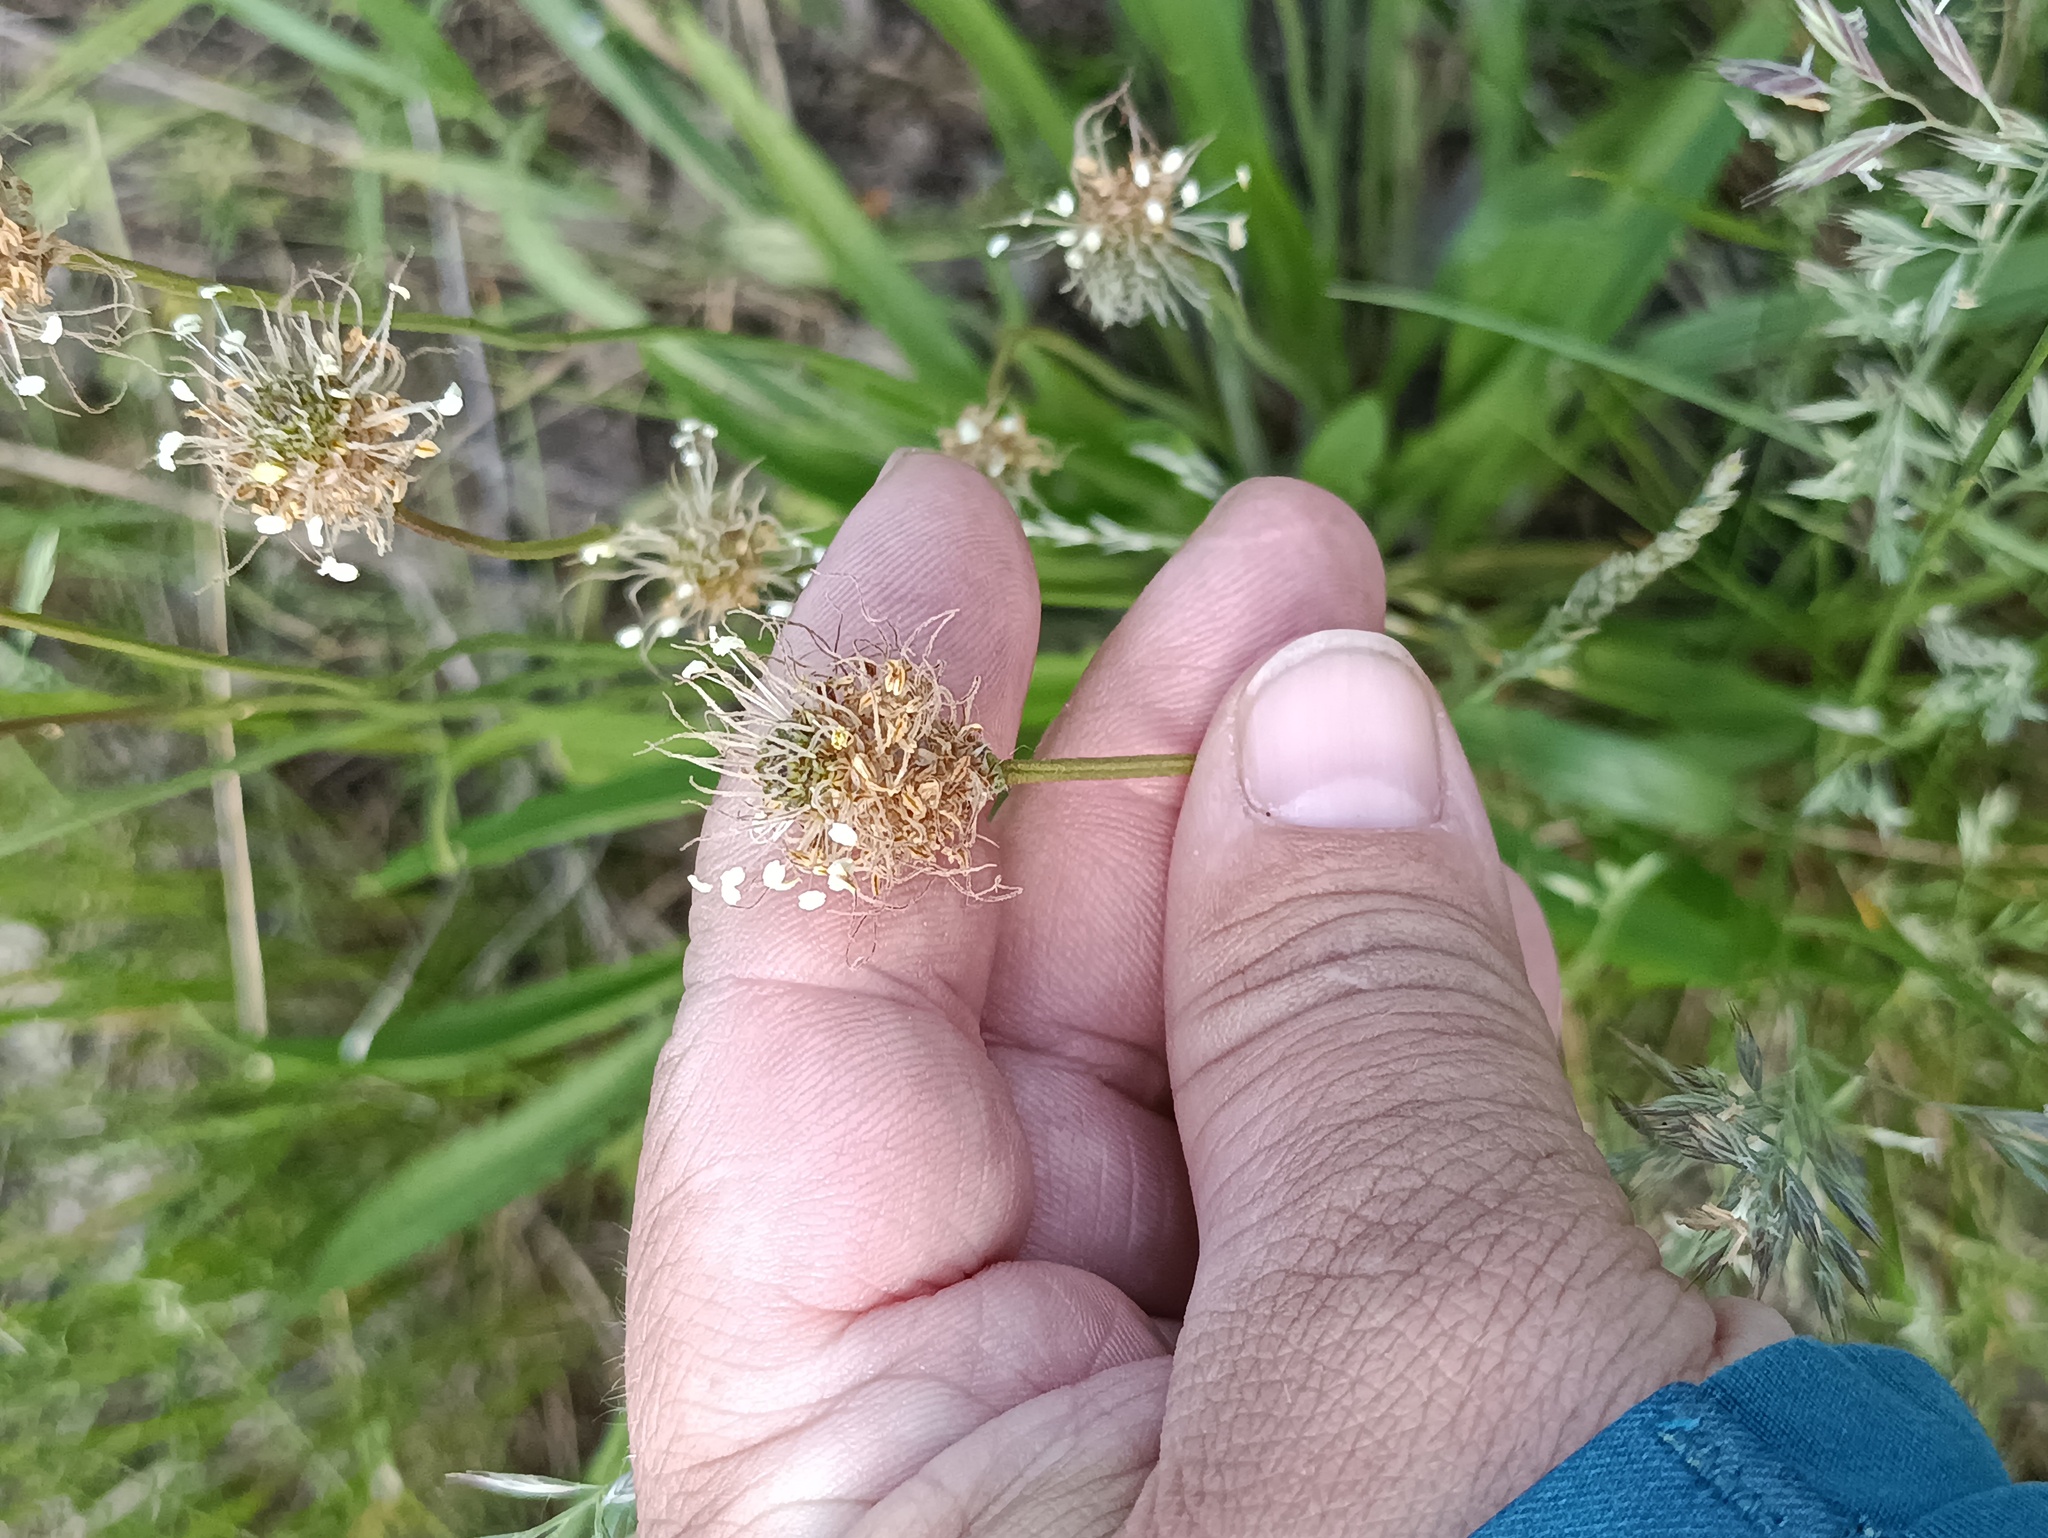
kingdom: Plantae
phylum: Tracheophyta
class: Magnoliopsida
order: Lamiales
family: Plantaginaceae
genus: Plantago
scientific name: Plantago lanceolata
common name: Ribwort plantain
